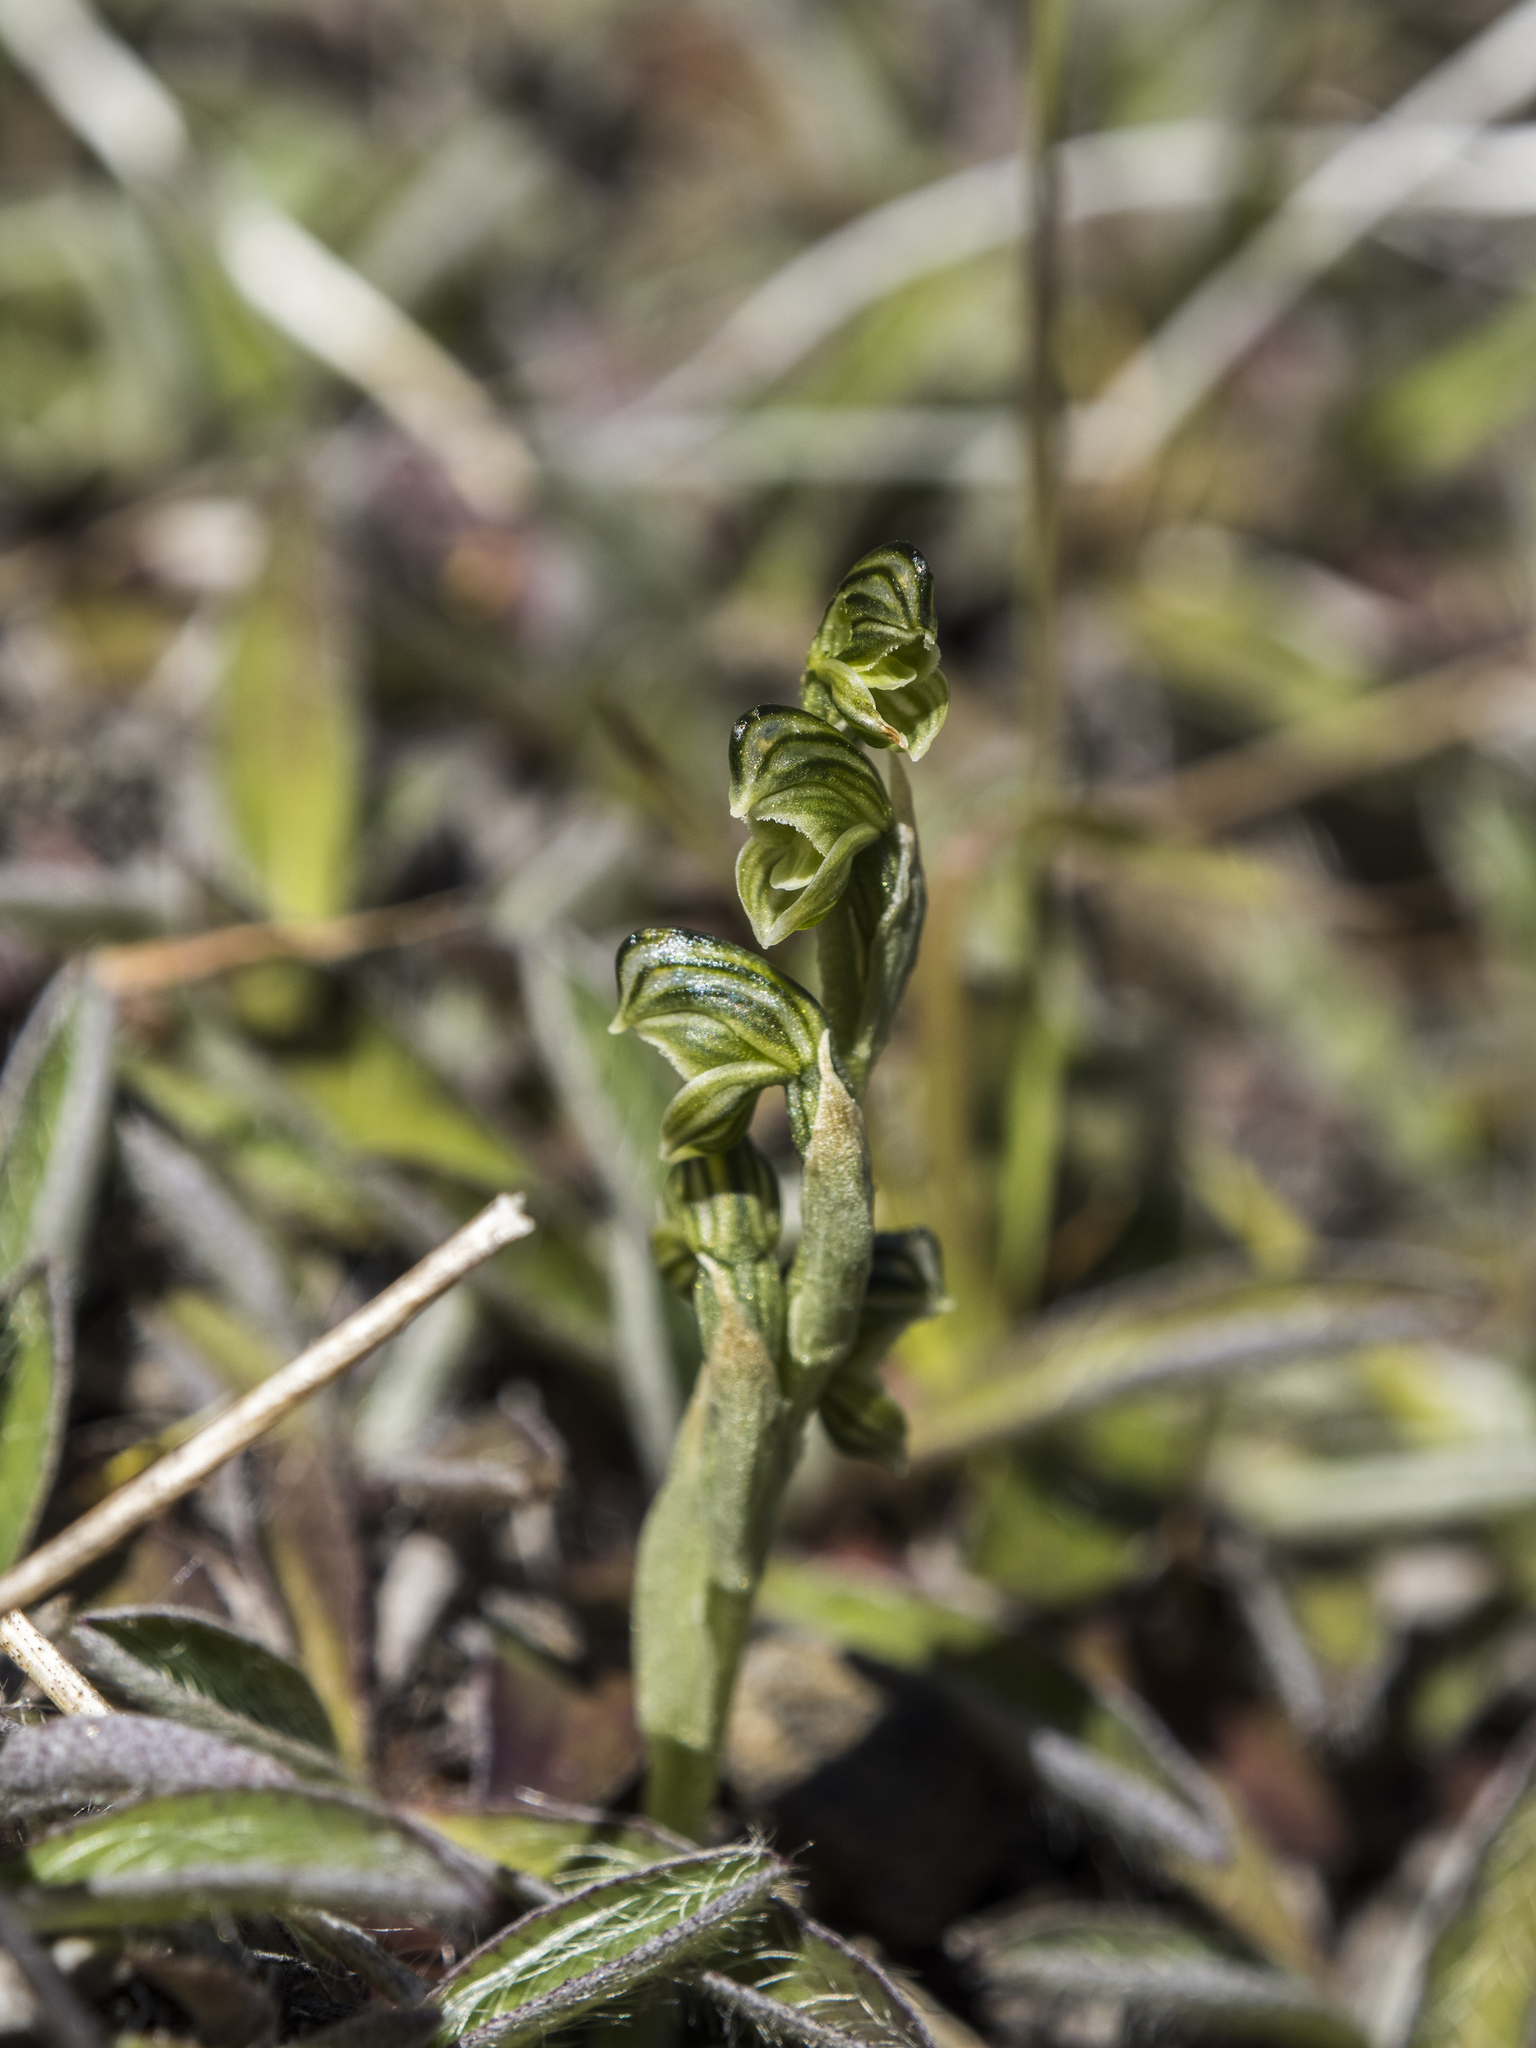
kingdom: Plantae
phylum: Tracheophyta
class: Liliopsida
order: Asparagales
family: Orchidaceae
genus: Pterostylis
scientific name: Pterostylis tanypoda
